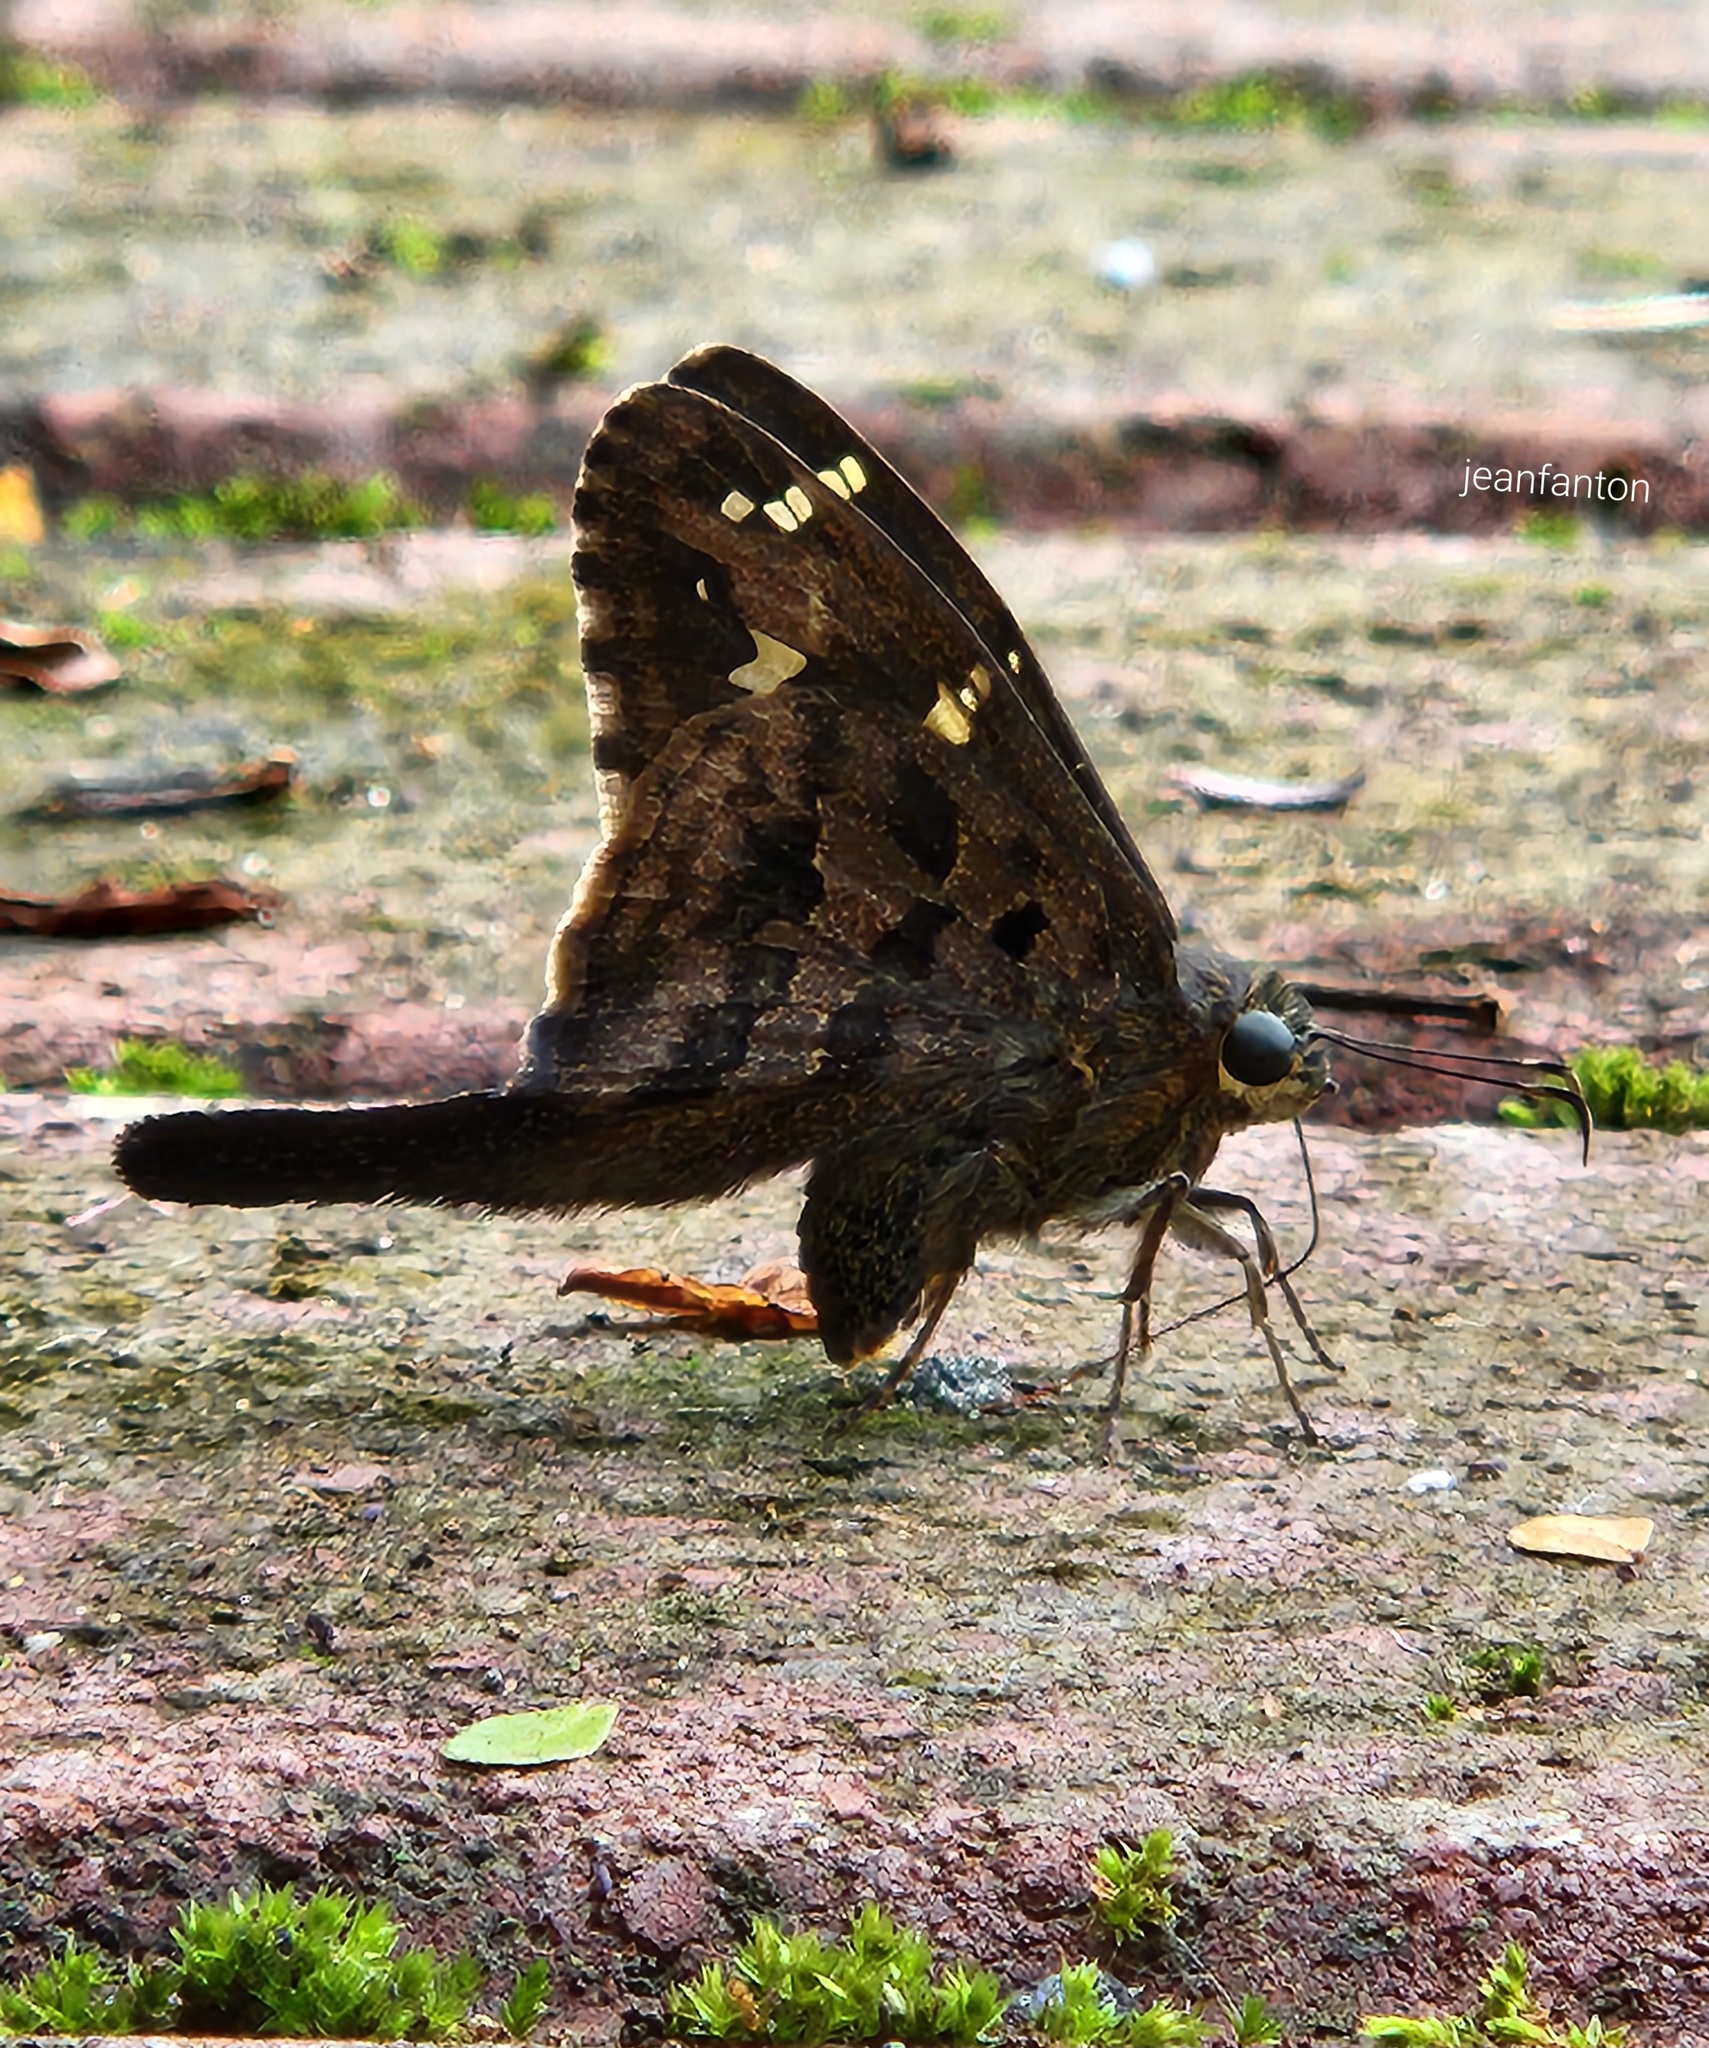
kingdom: Animalia
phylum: Arthropoda
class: Insecta
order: Lepidoptera
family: Hesperiidae
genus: Thorybes
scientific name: Thorybes
